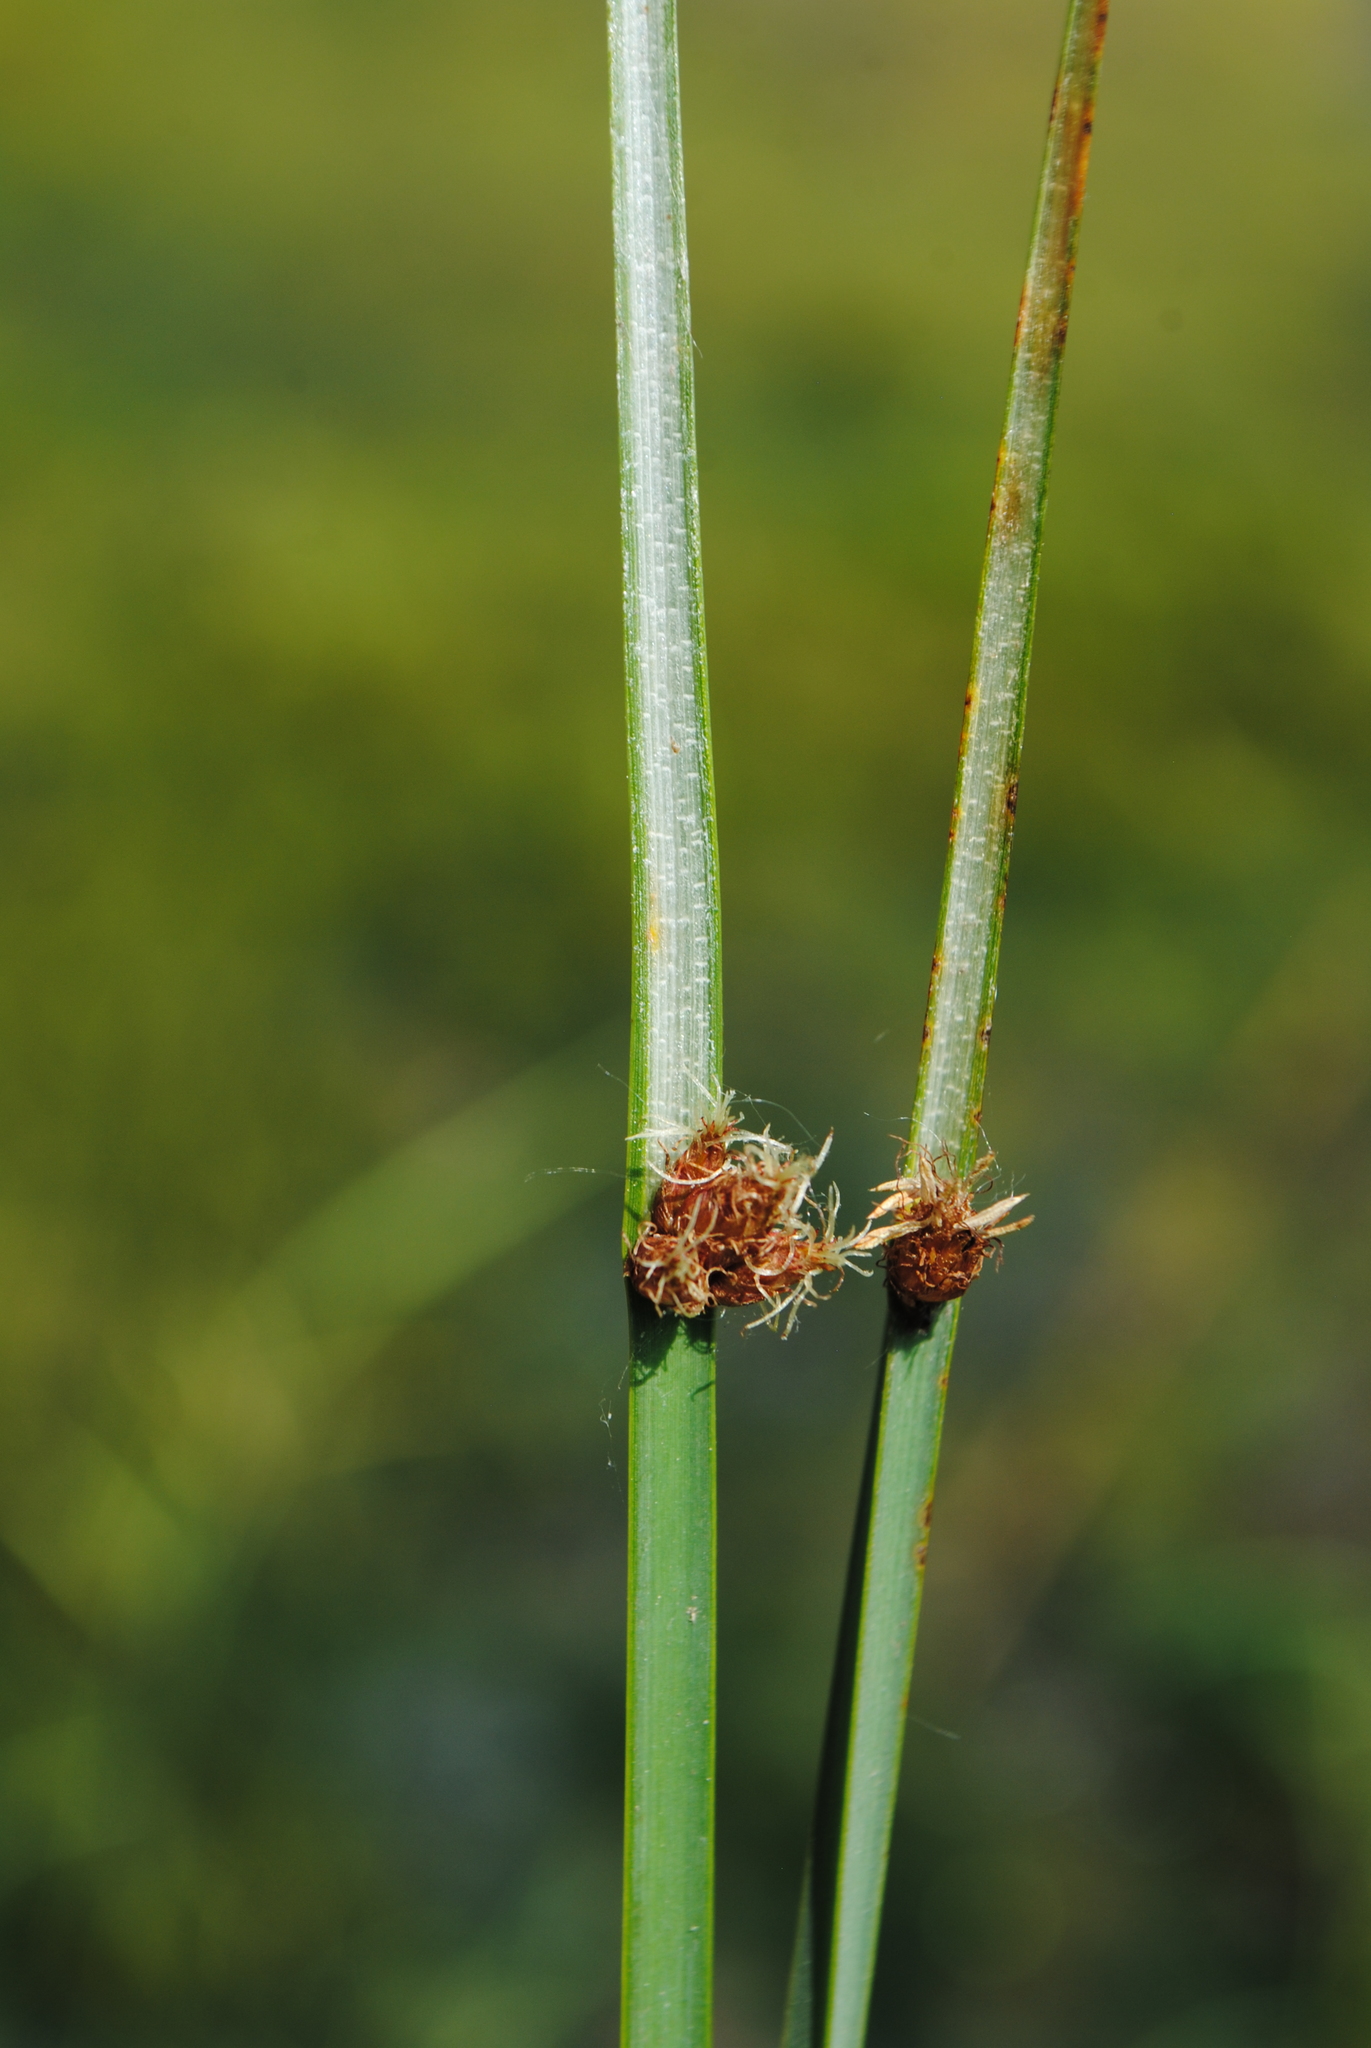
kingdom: Plantae
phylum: Tracheophyta
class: Liliopsida
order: Poales
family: Cyperaceae
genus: Schoenoplectus
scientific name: Schoenoplectus pungens
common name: Sharp club-rush
